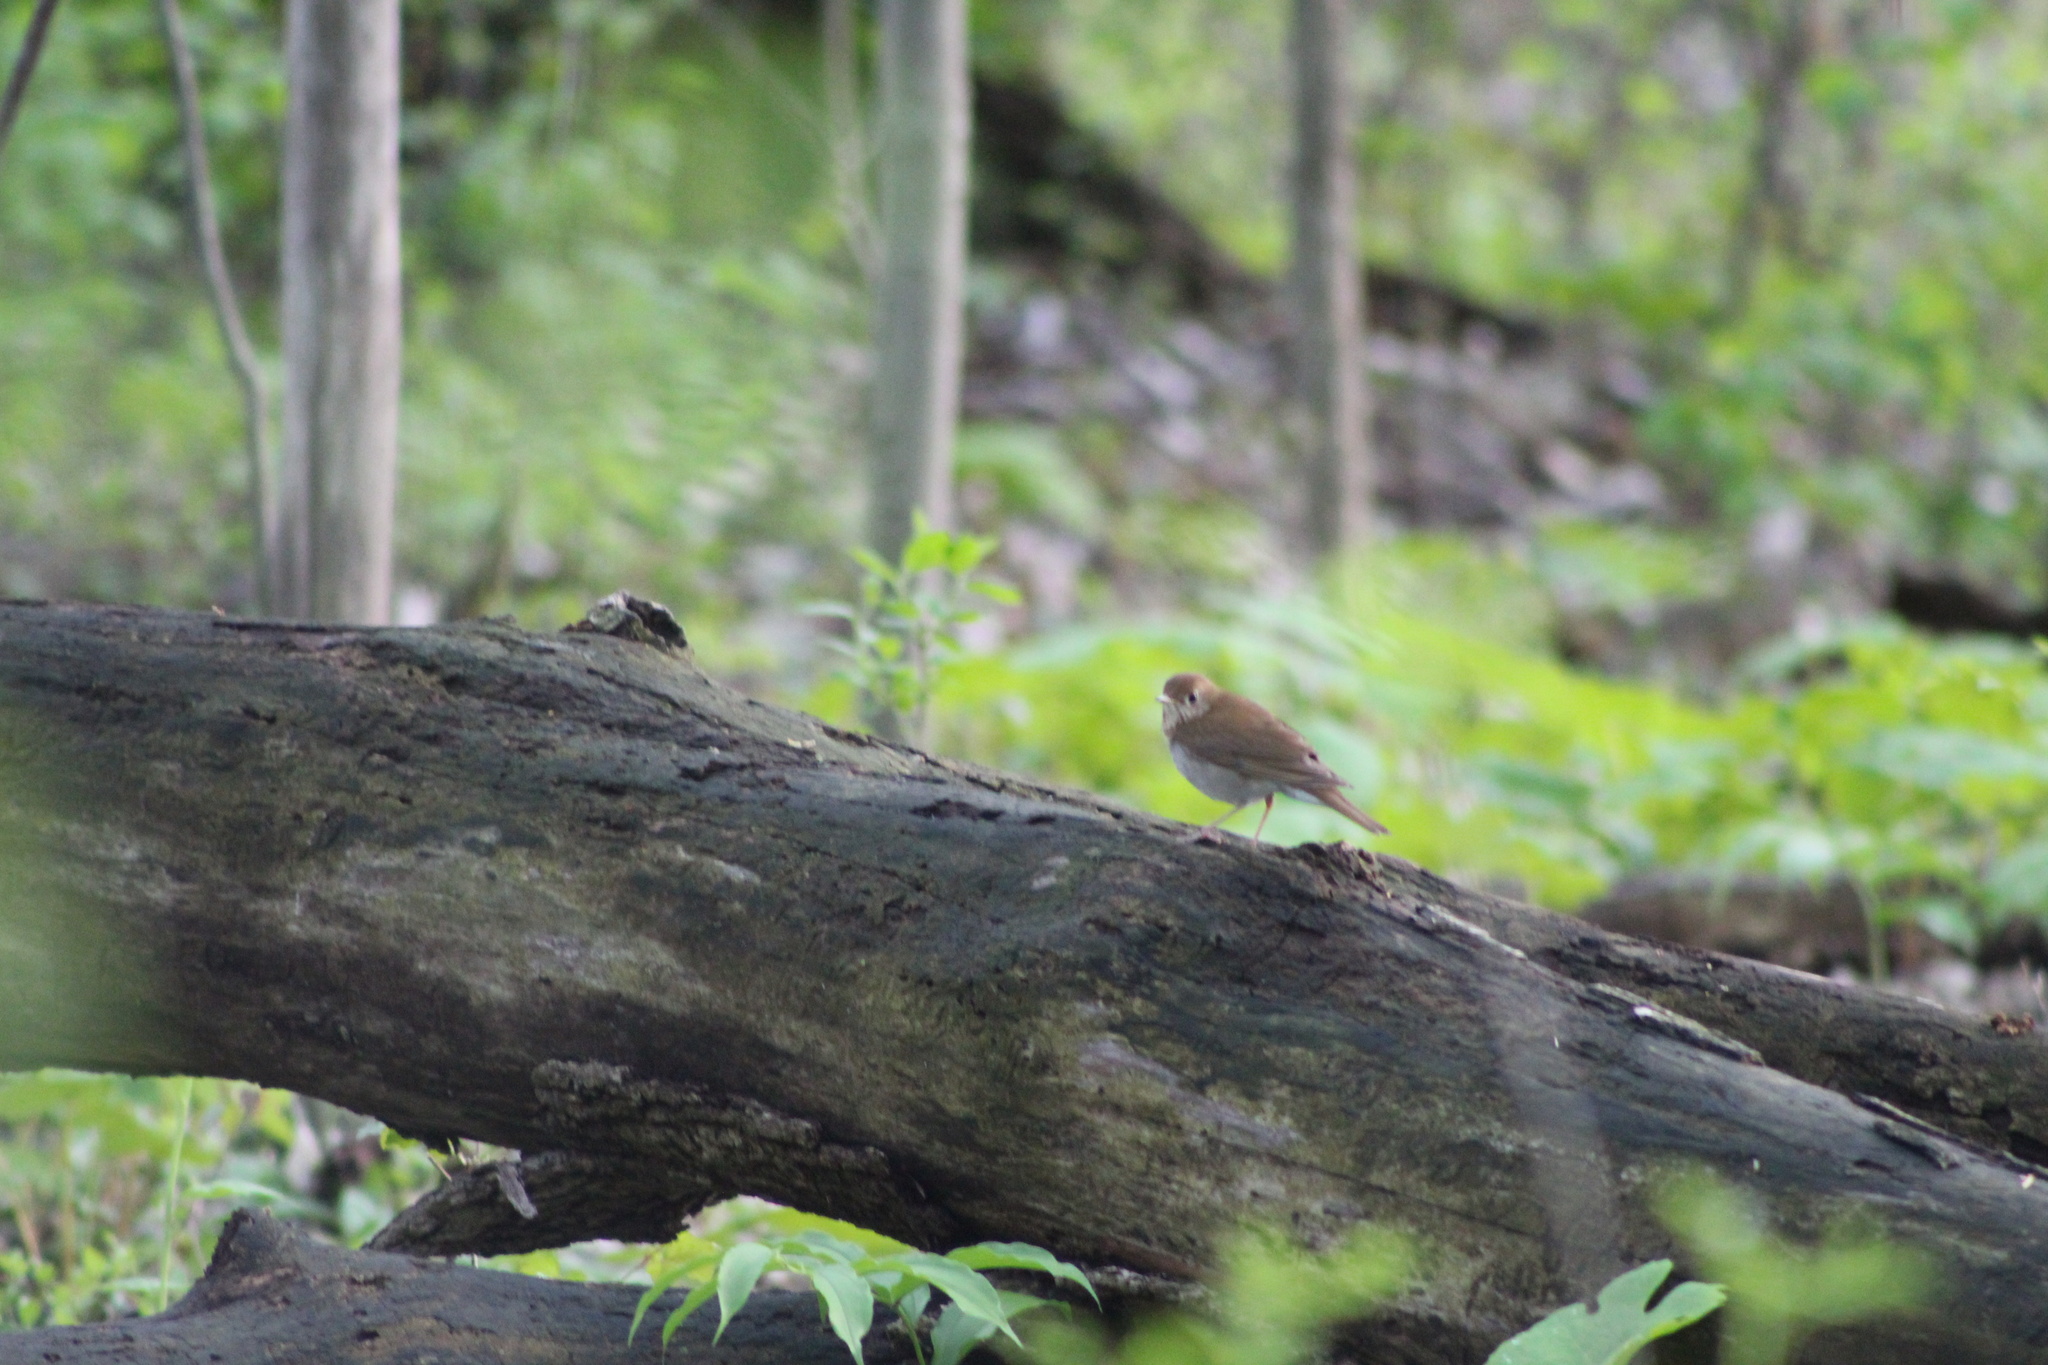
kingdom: Animalia
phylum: Chordata
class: Aves
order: Passeriformes
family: Turdidae
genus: Catharus
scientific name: Catharus fuscescens
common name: Veery
